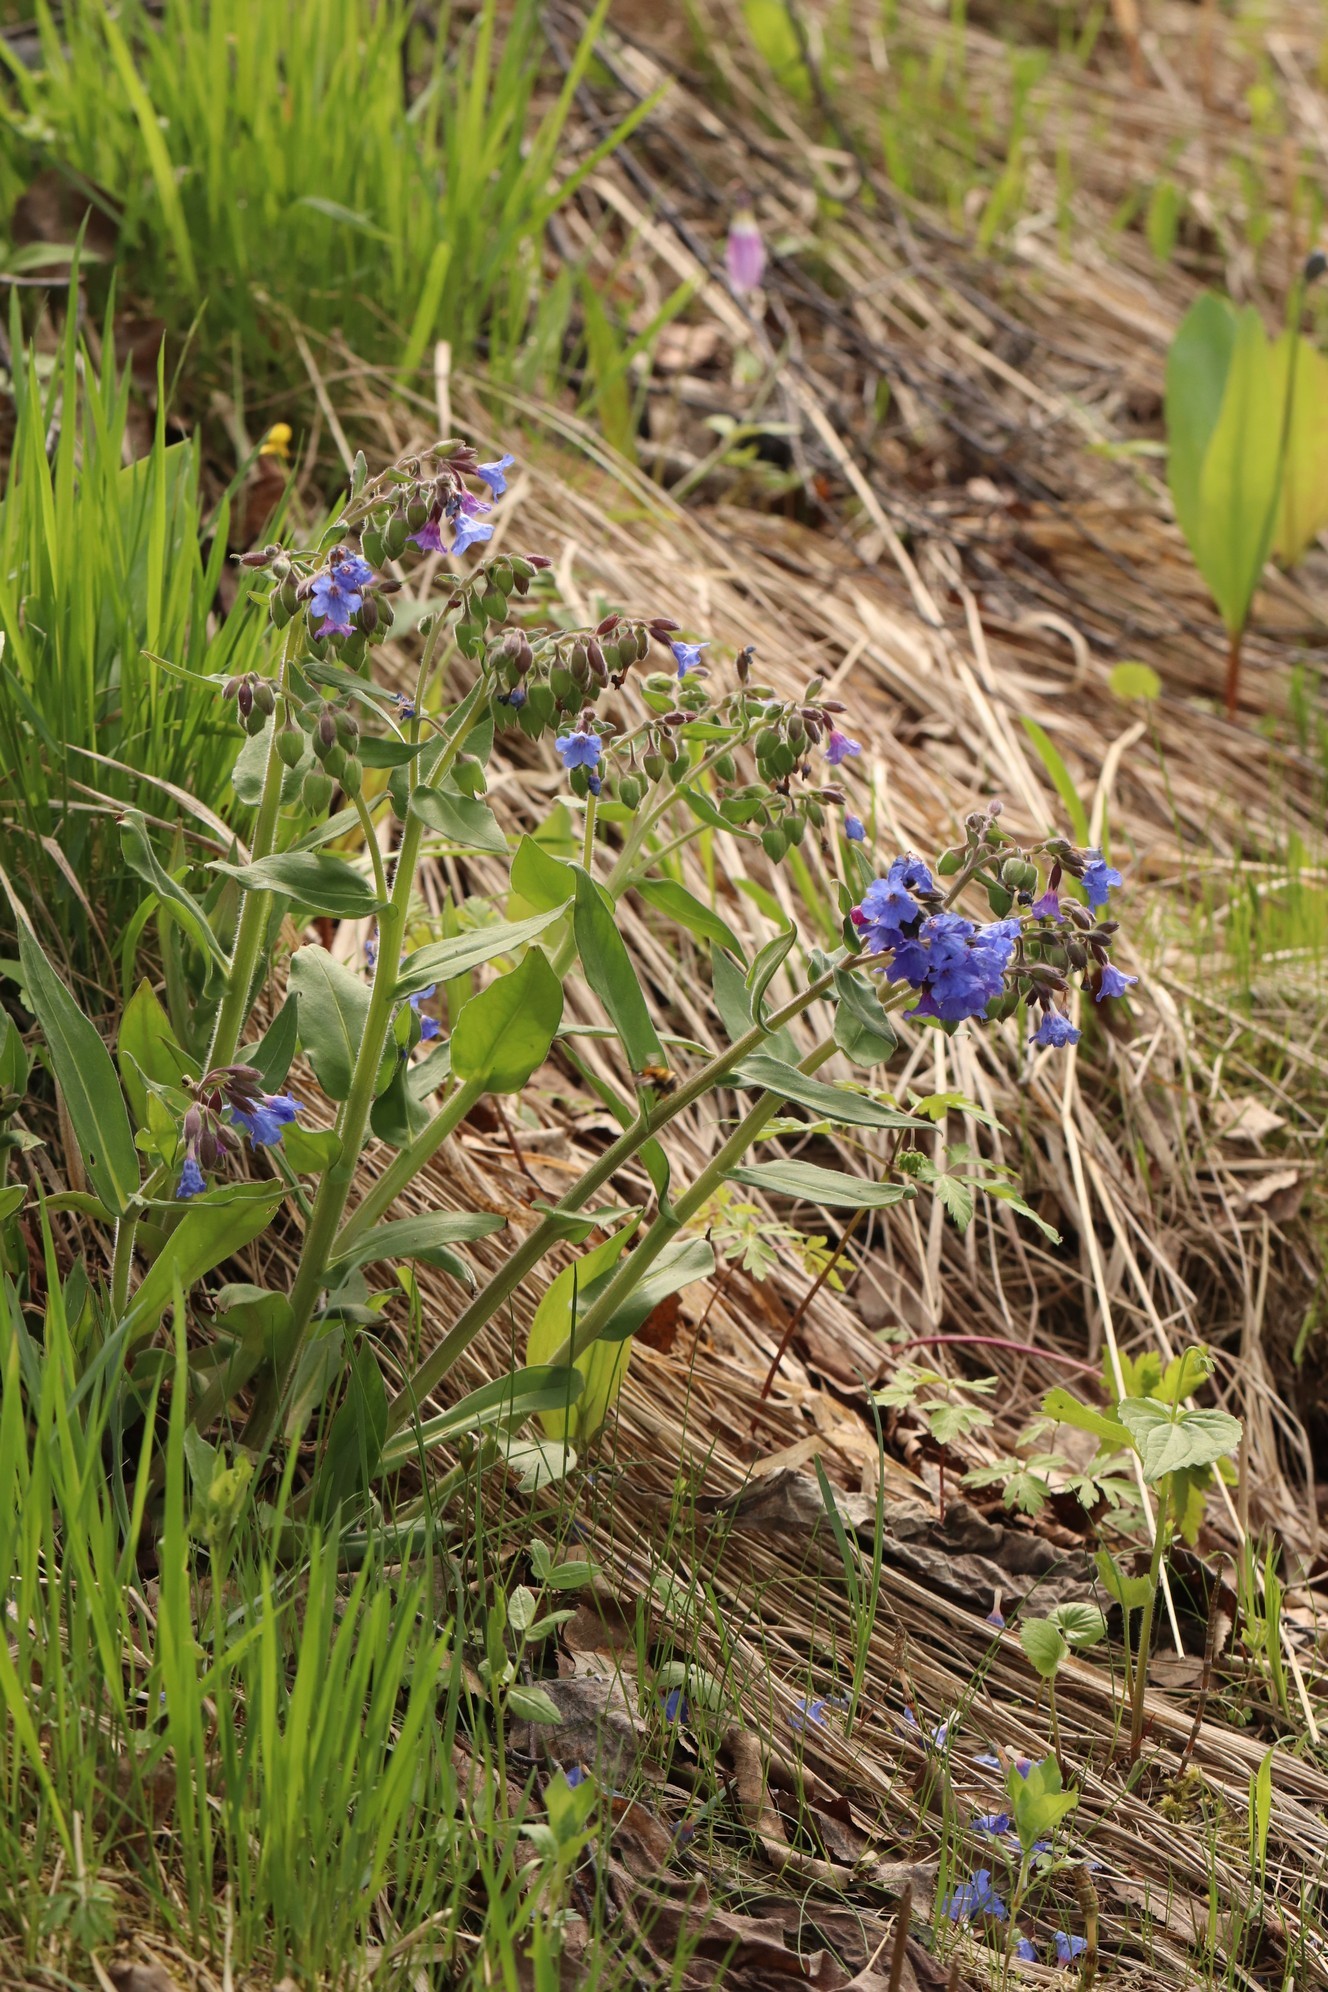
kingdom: Plantae
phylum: Tracheophyta
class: Magnoliopsida
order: Boraginales
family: Boraginaceae
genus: Pulmonaria
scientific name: Pulmonaria mollis
